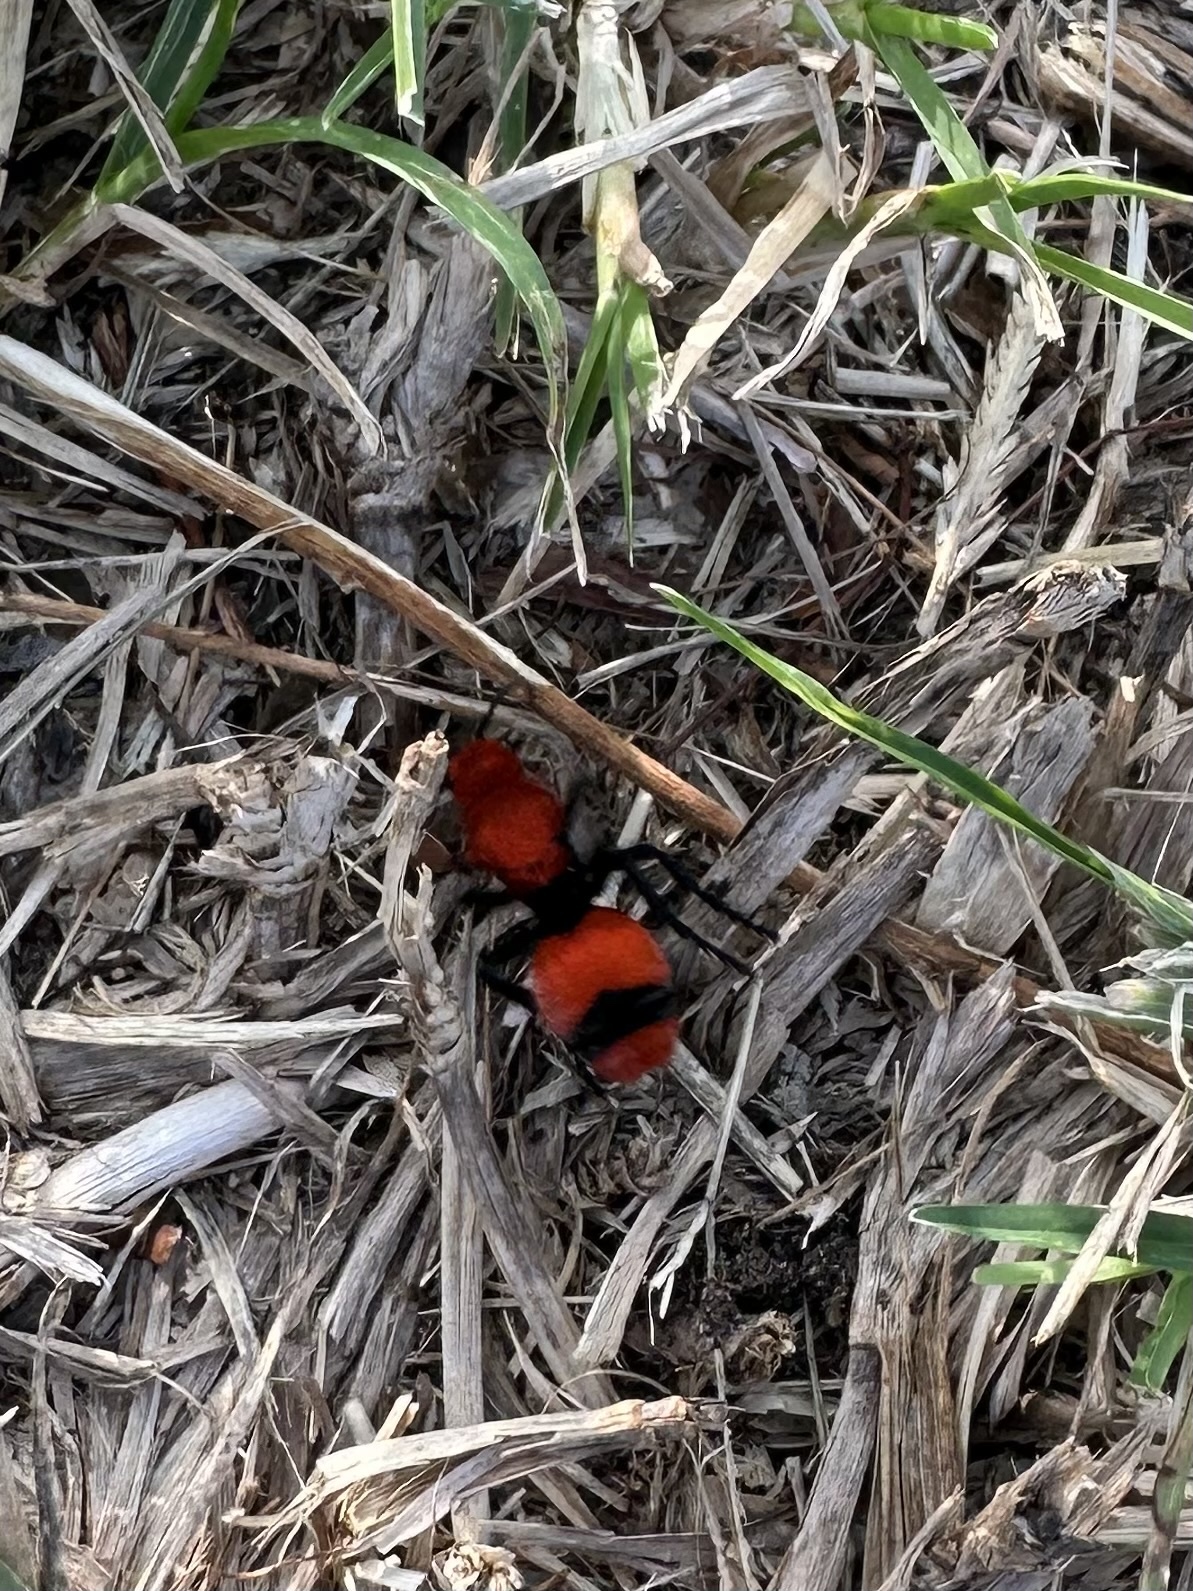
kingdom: Animalia
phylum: Arthropoda
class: Insecta
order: Hymenoptera
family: Mutillidae
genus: Dasymutilla
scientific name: Dasymutilla occidentalis
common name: Common eastern velvet ant
